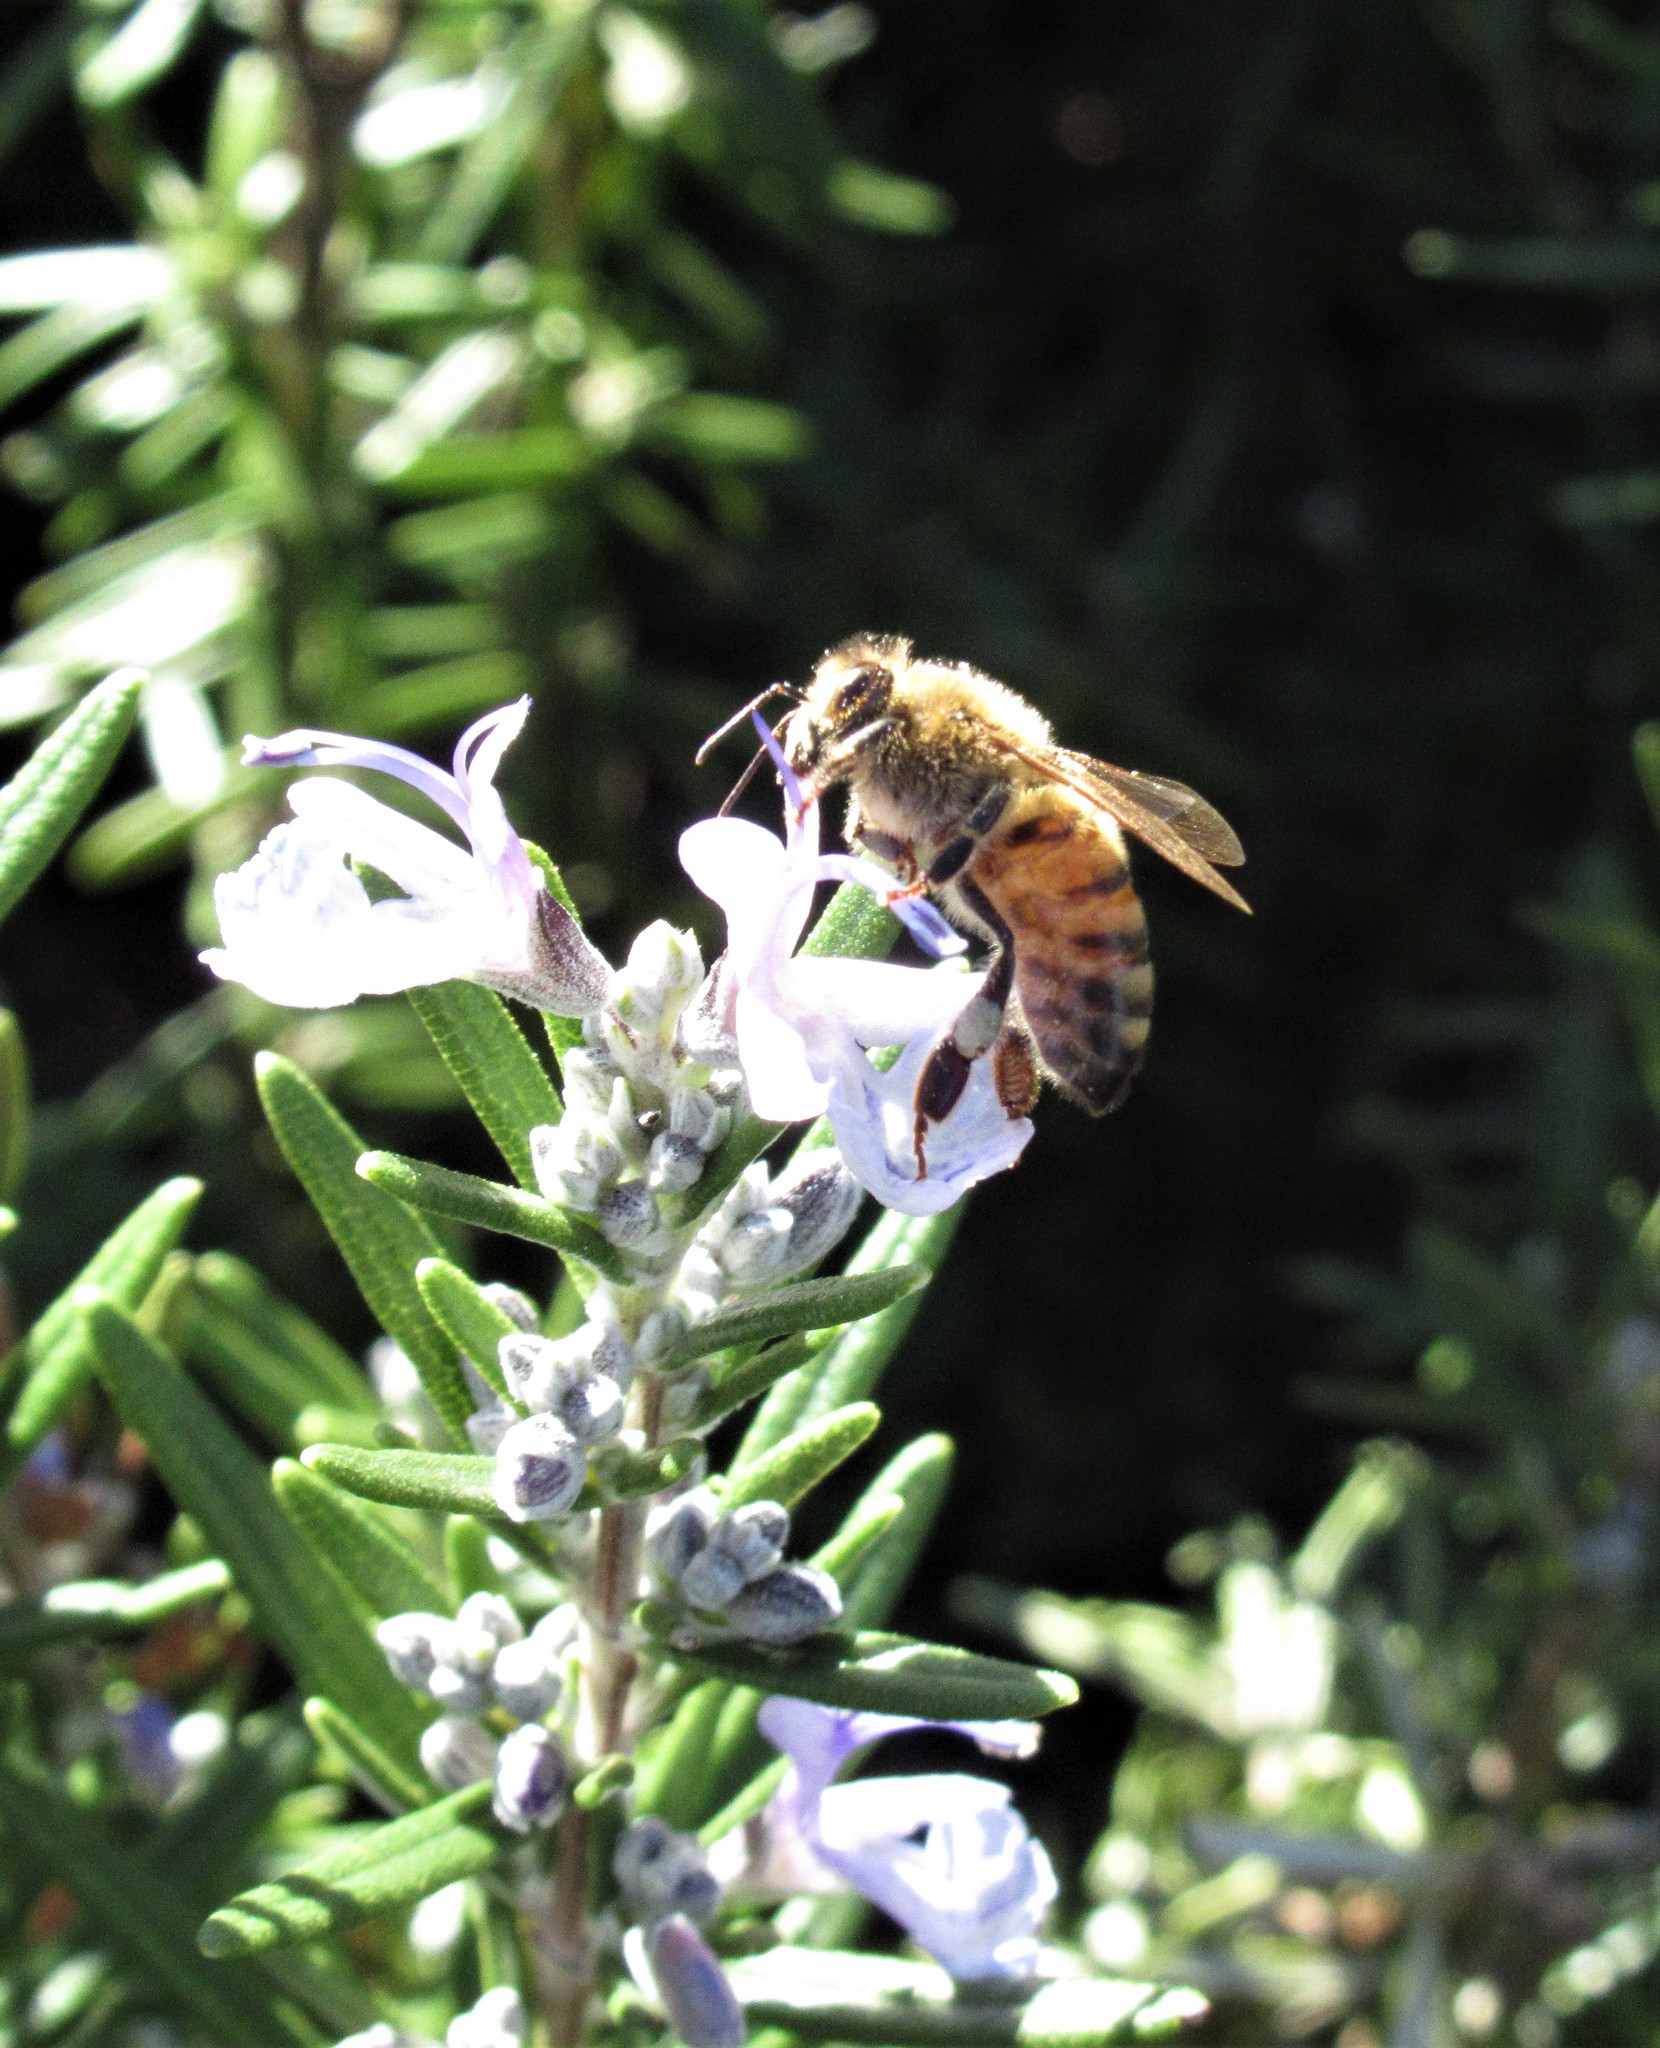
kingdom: Animalia
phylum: Arthropoda
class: Insecta
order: Hymenoptera
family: Apidae
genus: Apis
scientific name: Apis mellifera
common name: Honey bee
